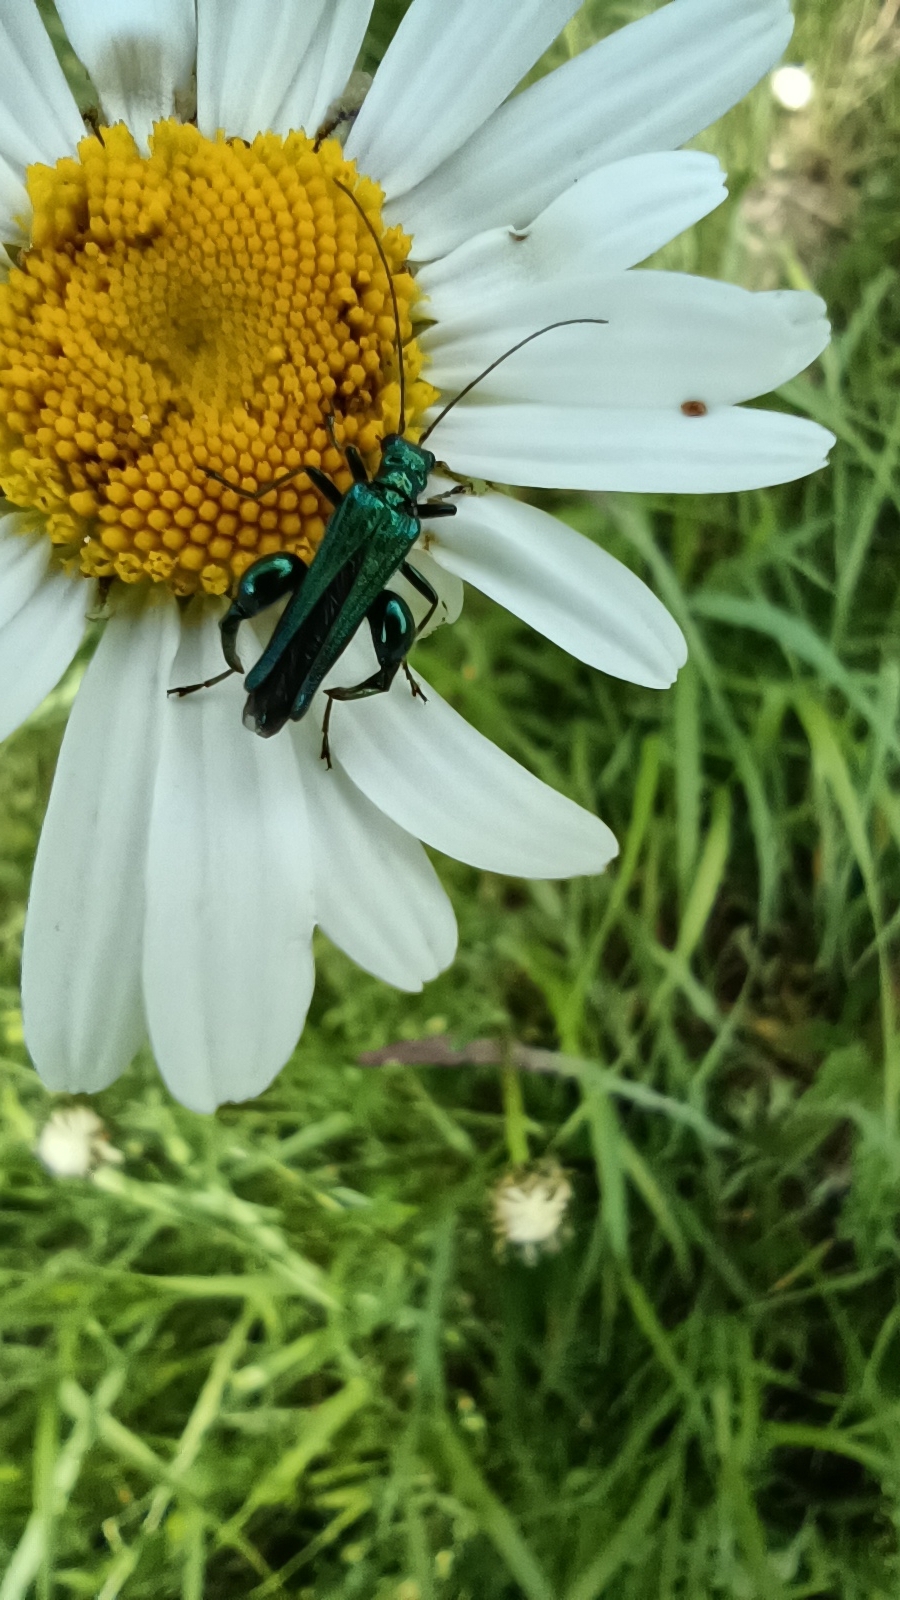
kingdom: Animalia
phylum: Arthropoda
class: Insecta
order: Coleoptera
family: Oedemeridae
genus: Oedemera
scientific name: Oedemera nobilis
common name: Swollen-thighed beetle
